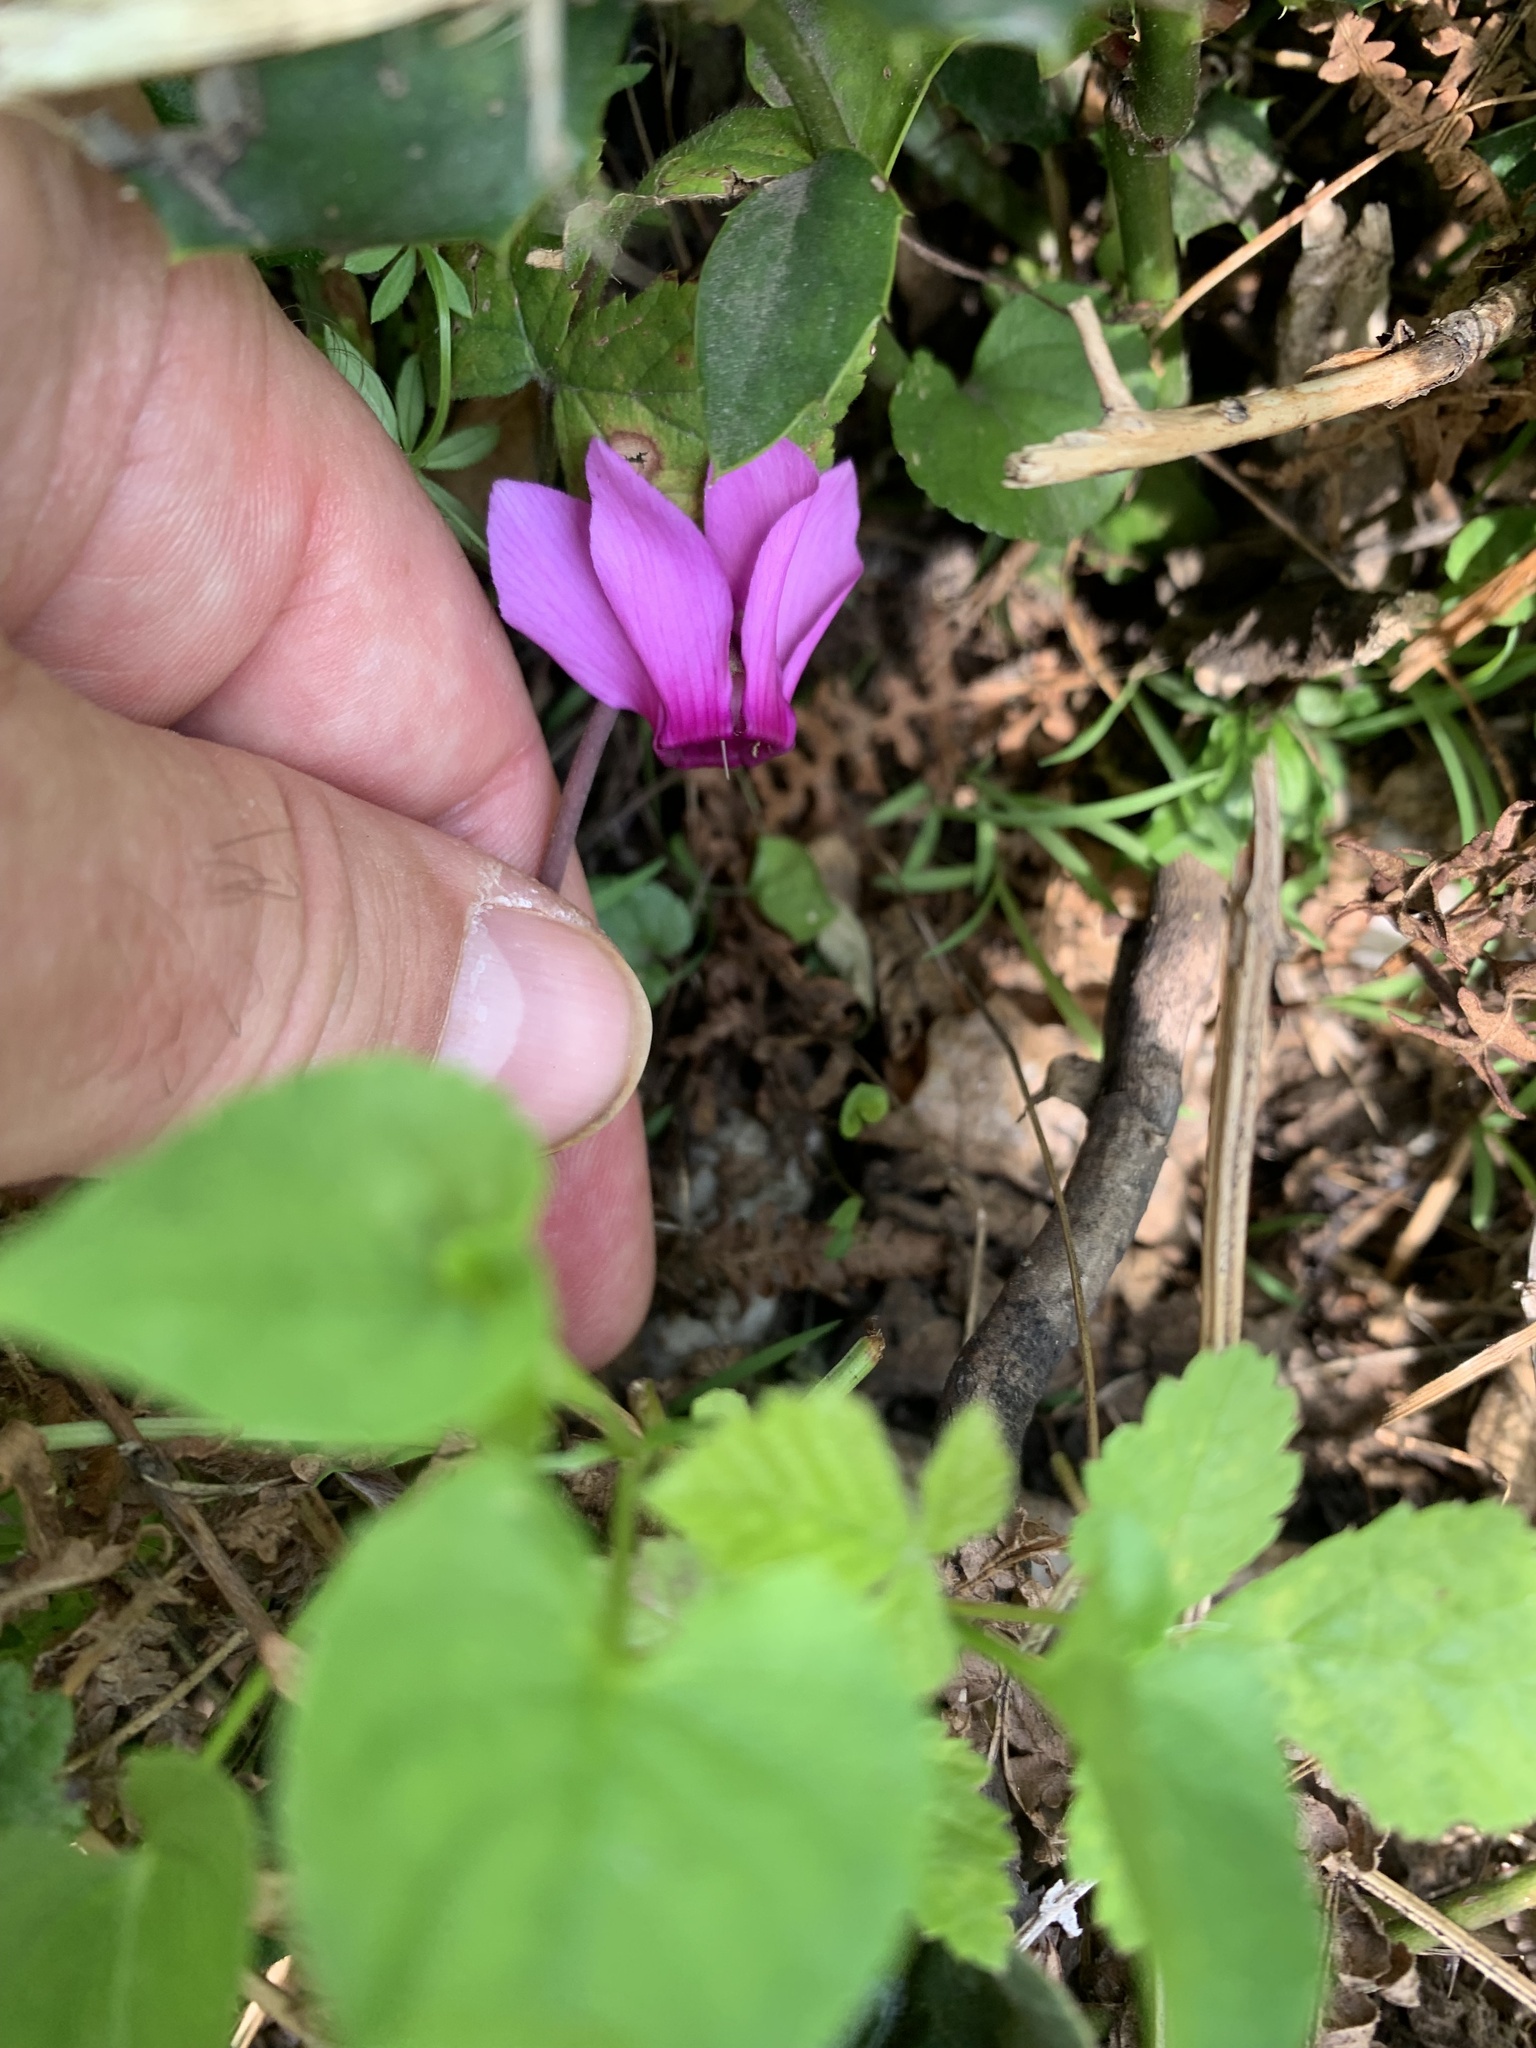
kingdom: Plantae
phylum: Tracheophyta
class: Magnoliopsida
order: Ericales
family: Primulaceae
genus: Cyclamen
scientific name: Cyclamen purpurascens
